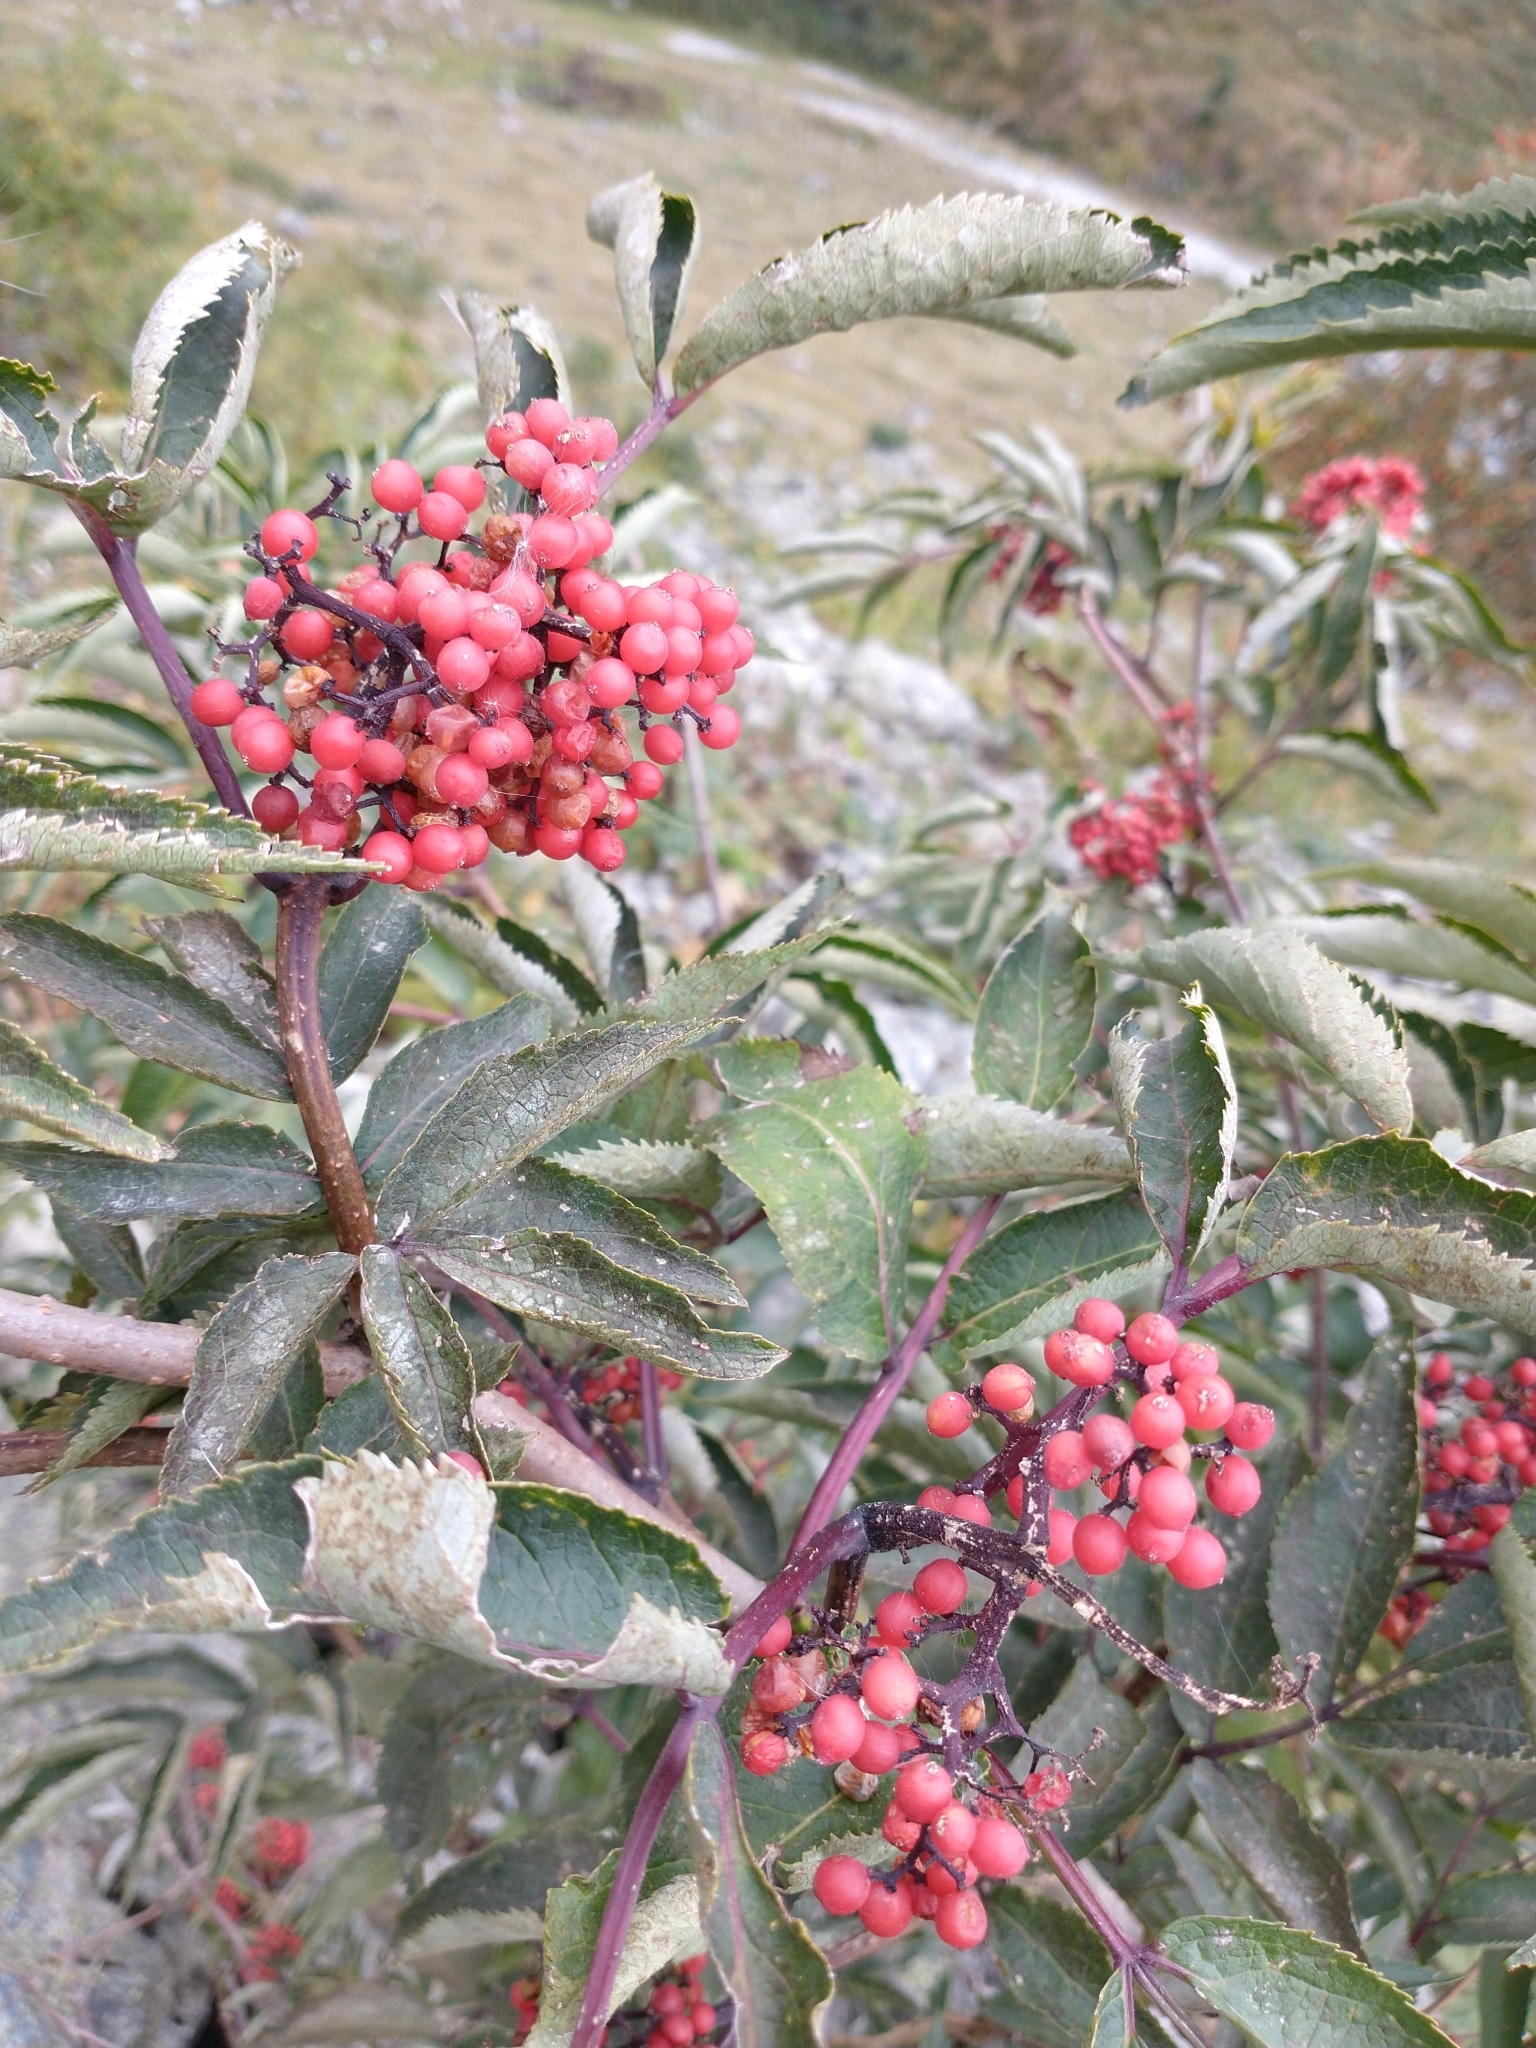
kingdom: Plantae
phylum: Tracheophyta
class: Magnoliopsida
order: Dipsacales
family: Viburnaceae
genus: Sambucus
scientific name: Sambucus racemosa
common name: Red-berried elder
